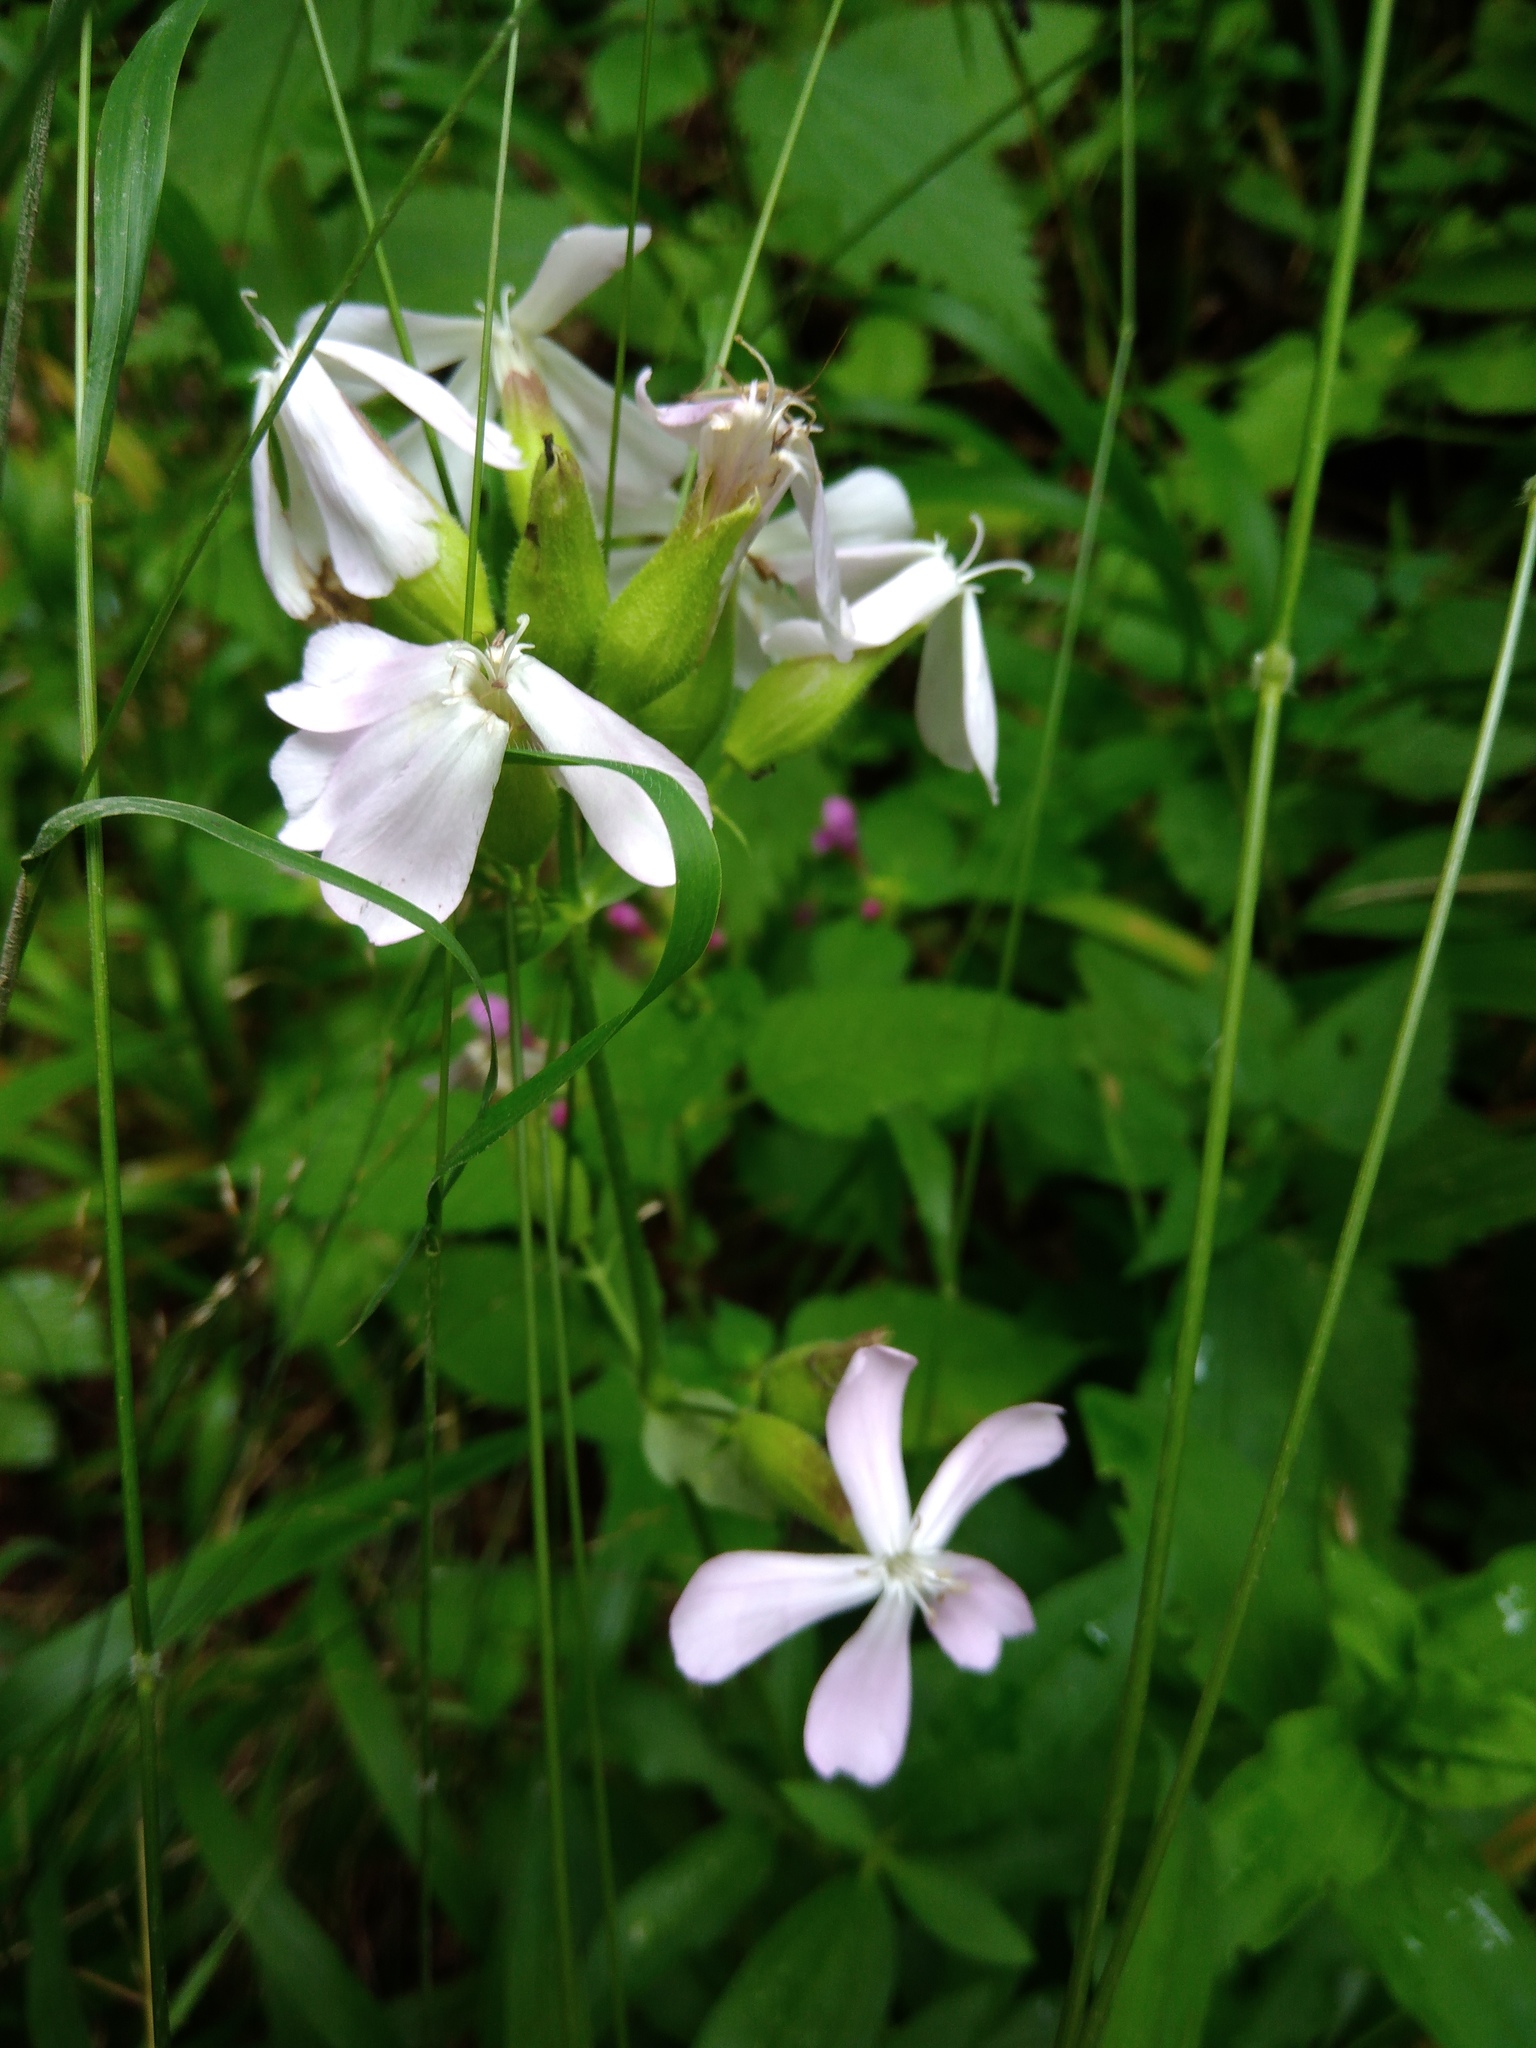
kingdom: Plantae
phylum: Tracheophyta
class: Magnoliopsida
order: Caryophyllales
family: Caryophyllaceae
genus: Saponaria
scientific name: Saponaria officinalis
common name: Soapwort
